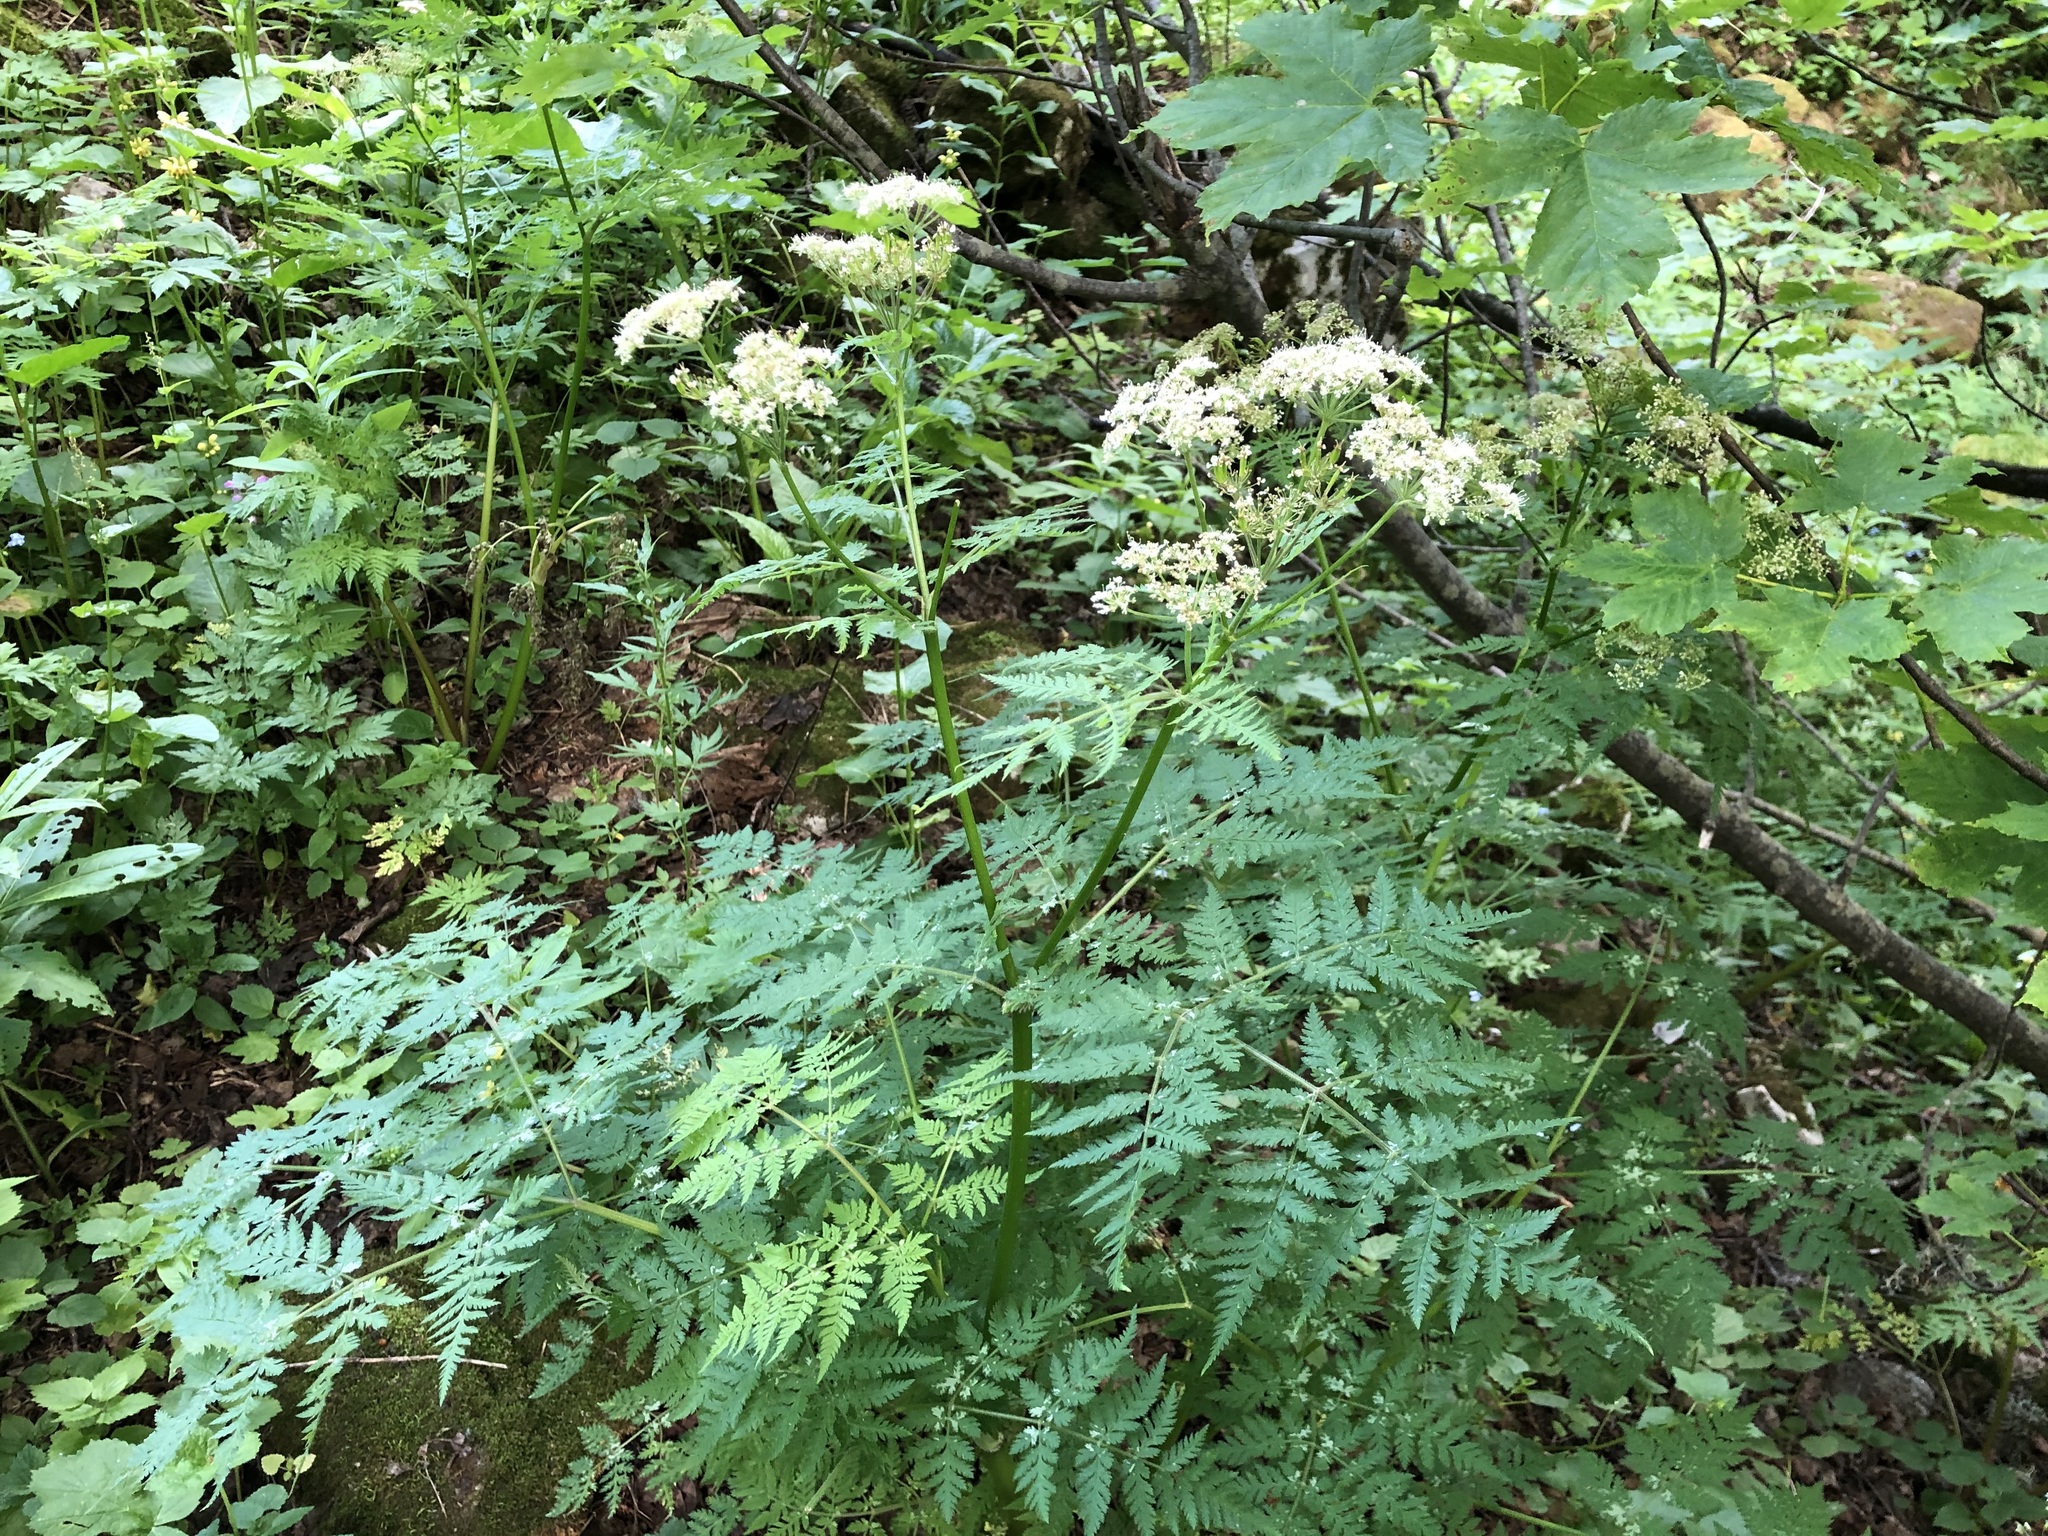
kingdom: Plantae
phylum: Tracheophyta
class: Magnoliopsida
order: Apiales
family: Apiaceae
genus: Myrrhis
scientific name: Myrrhis odorata
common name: Sweet cicely
